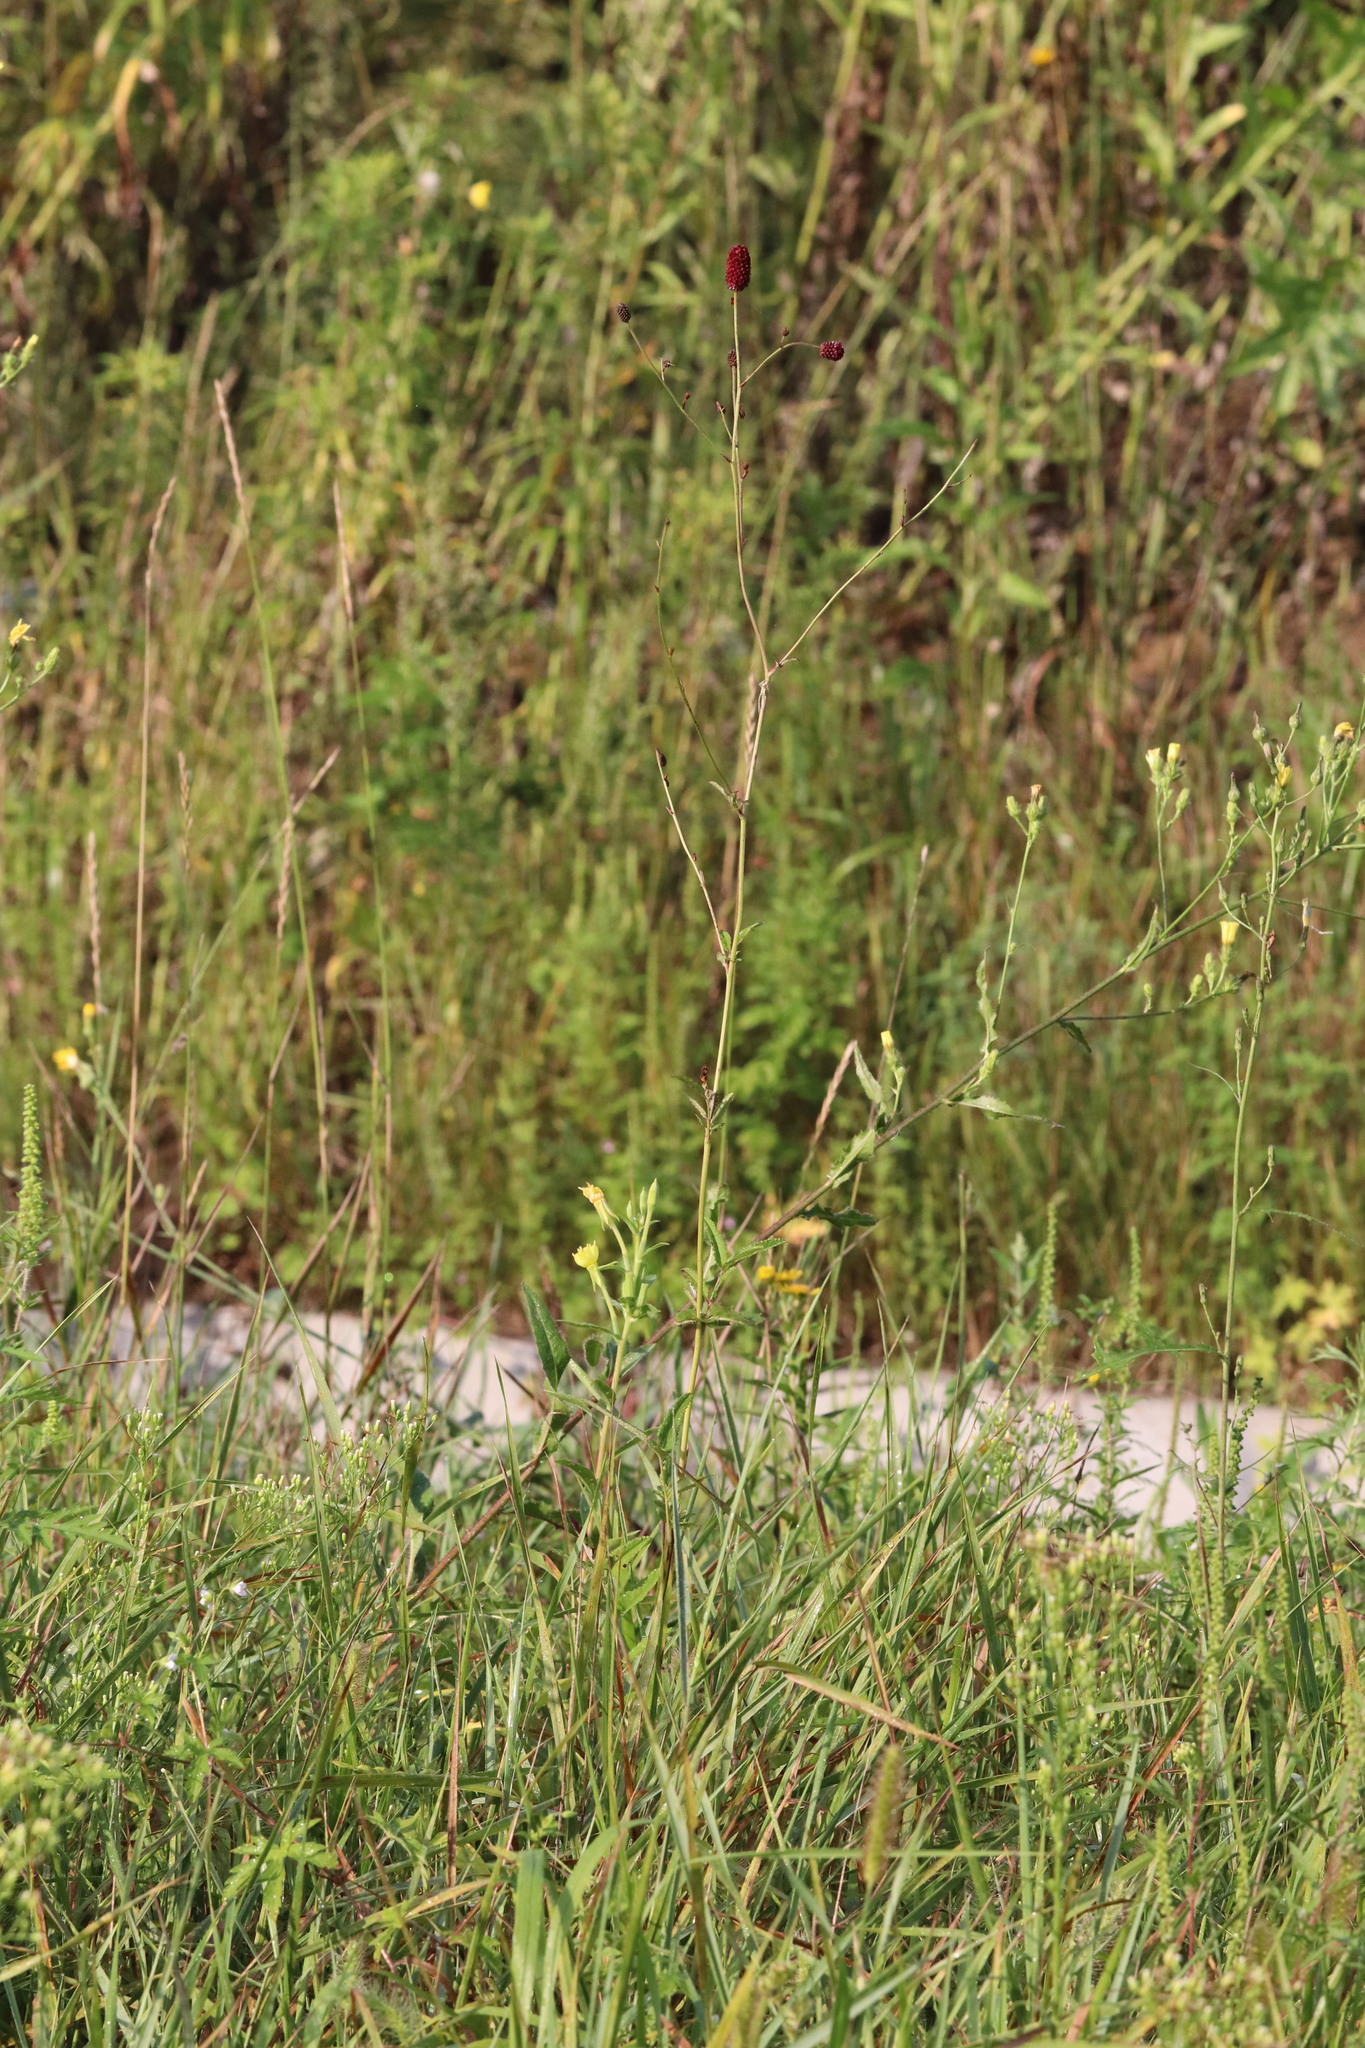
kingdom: Plantae
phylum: Tracheophyta
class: Magnoliopsida
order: Rosales
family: Rosaceae
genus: Sanguisorba
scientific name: Sanguisorba officinalis
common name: Great burnet
